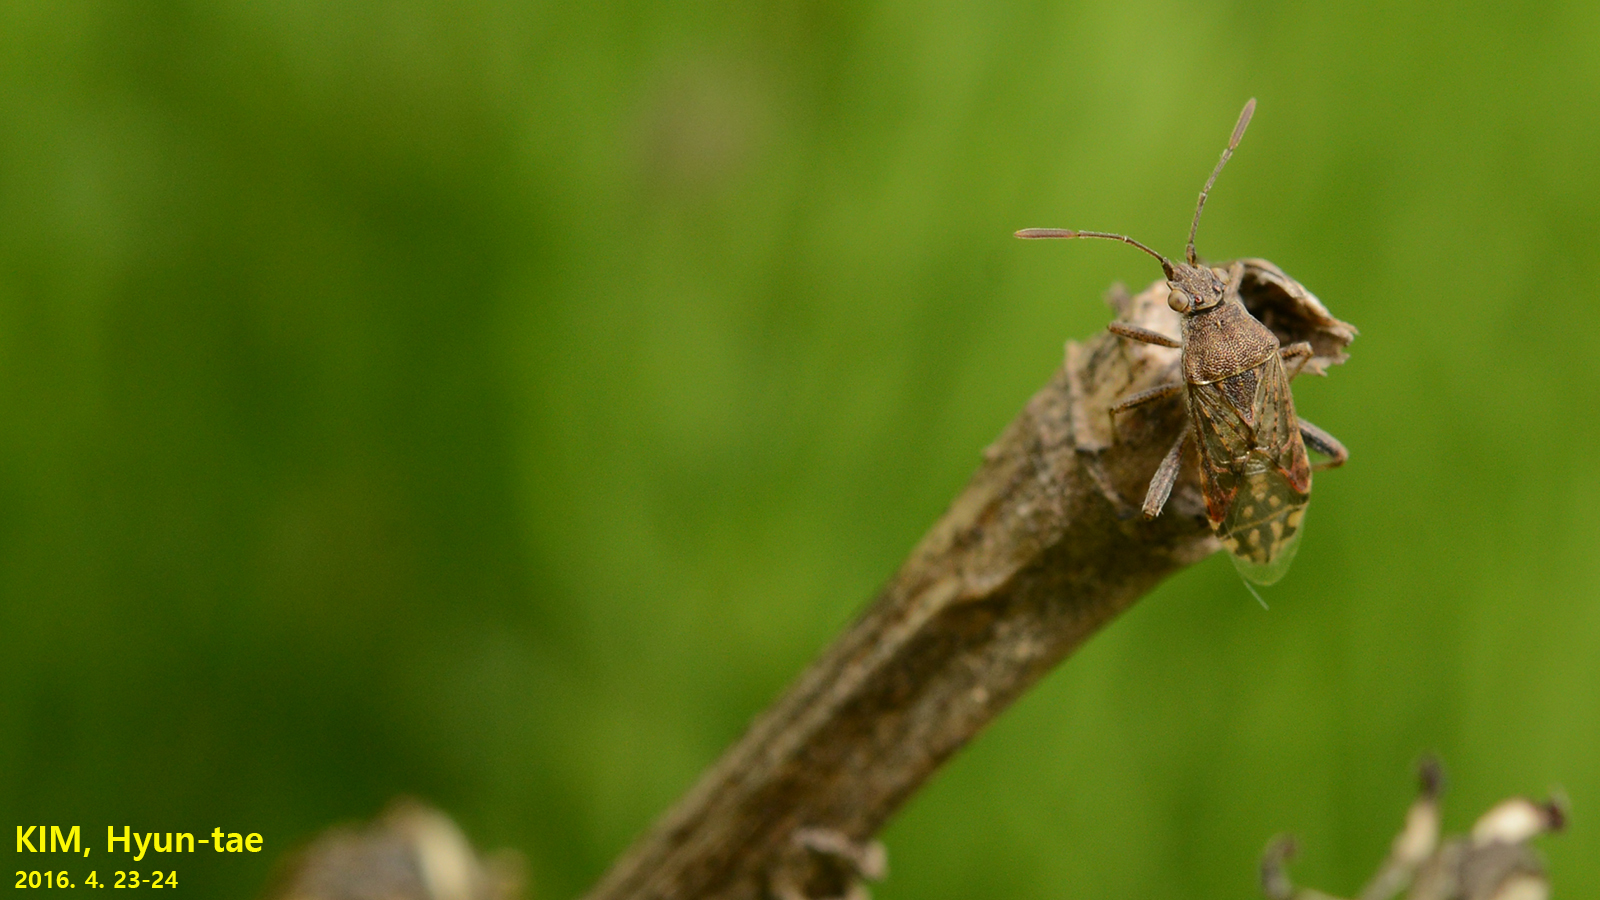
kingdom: Animalia
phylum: Arthropoda
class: Insecta
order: Hemiptera
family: Rhopalidae
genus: Stictopleurus
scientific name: Stictopleurus minutus
